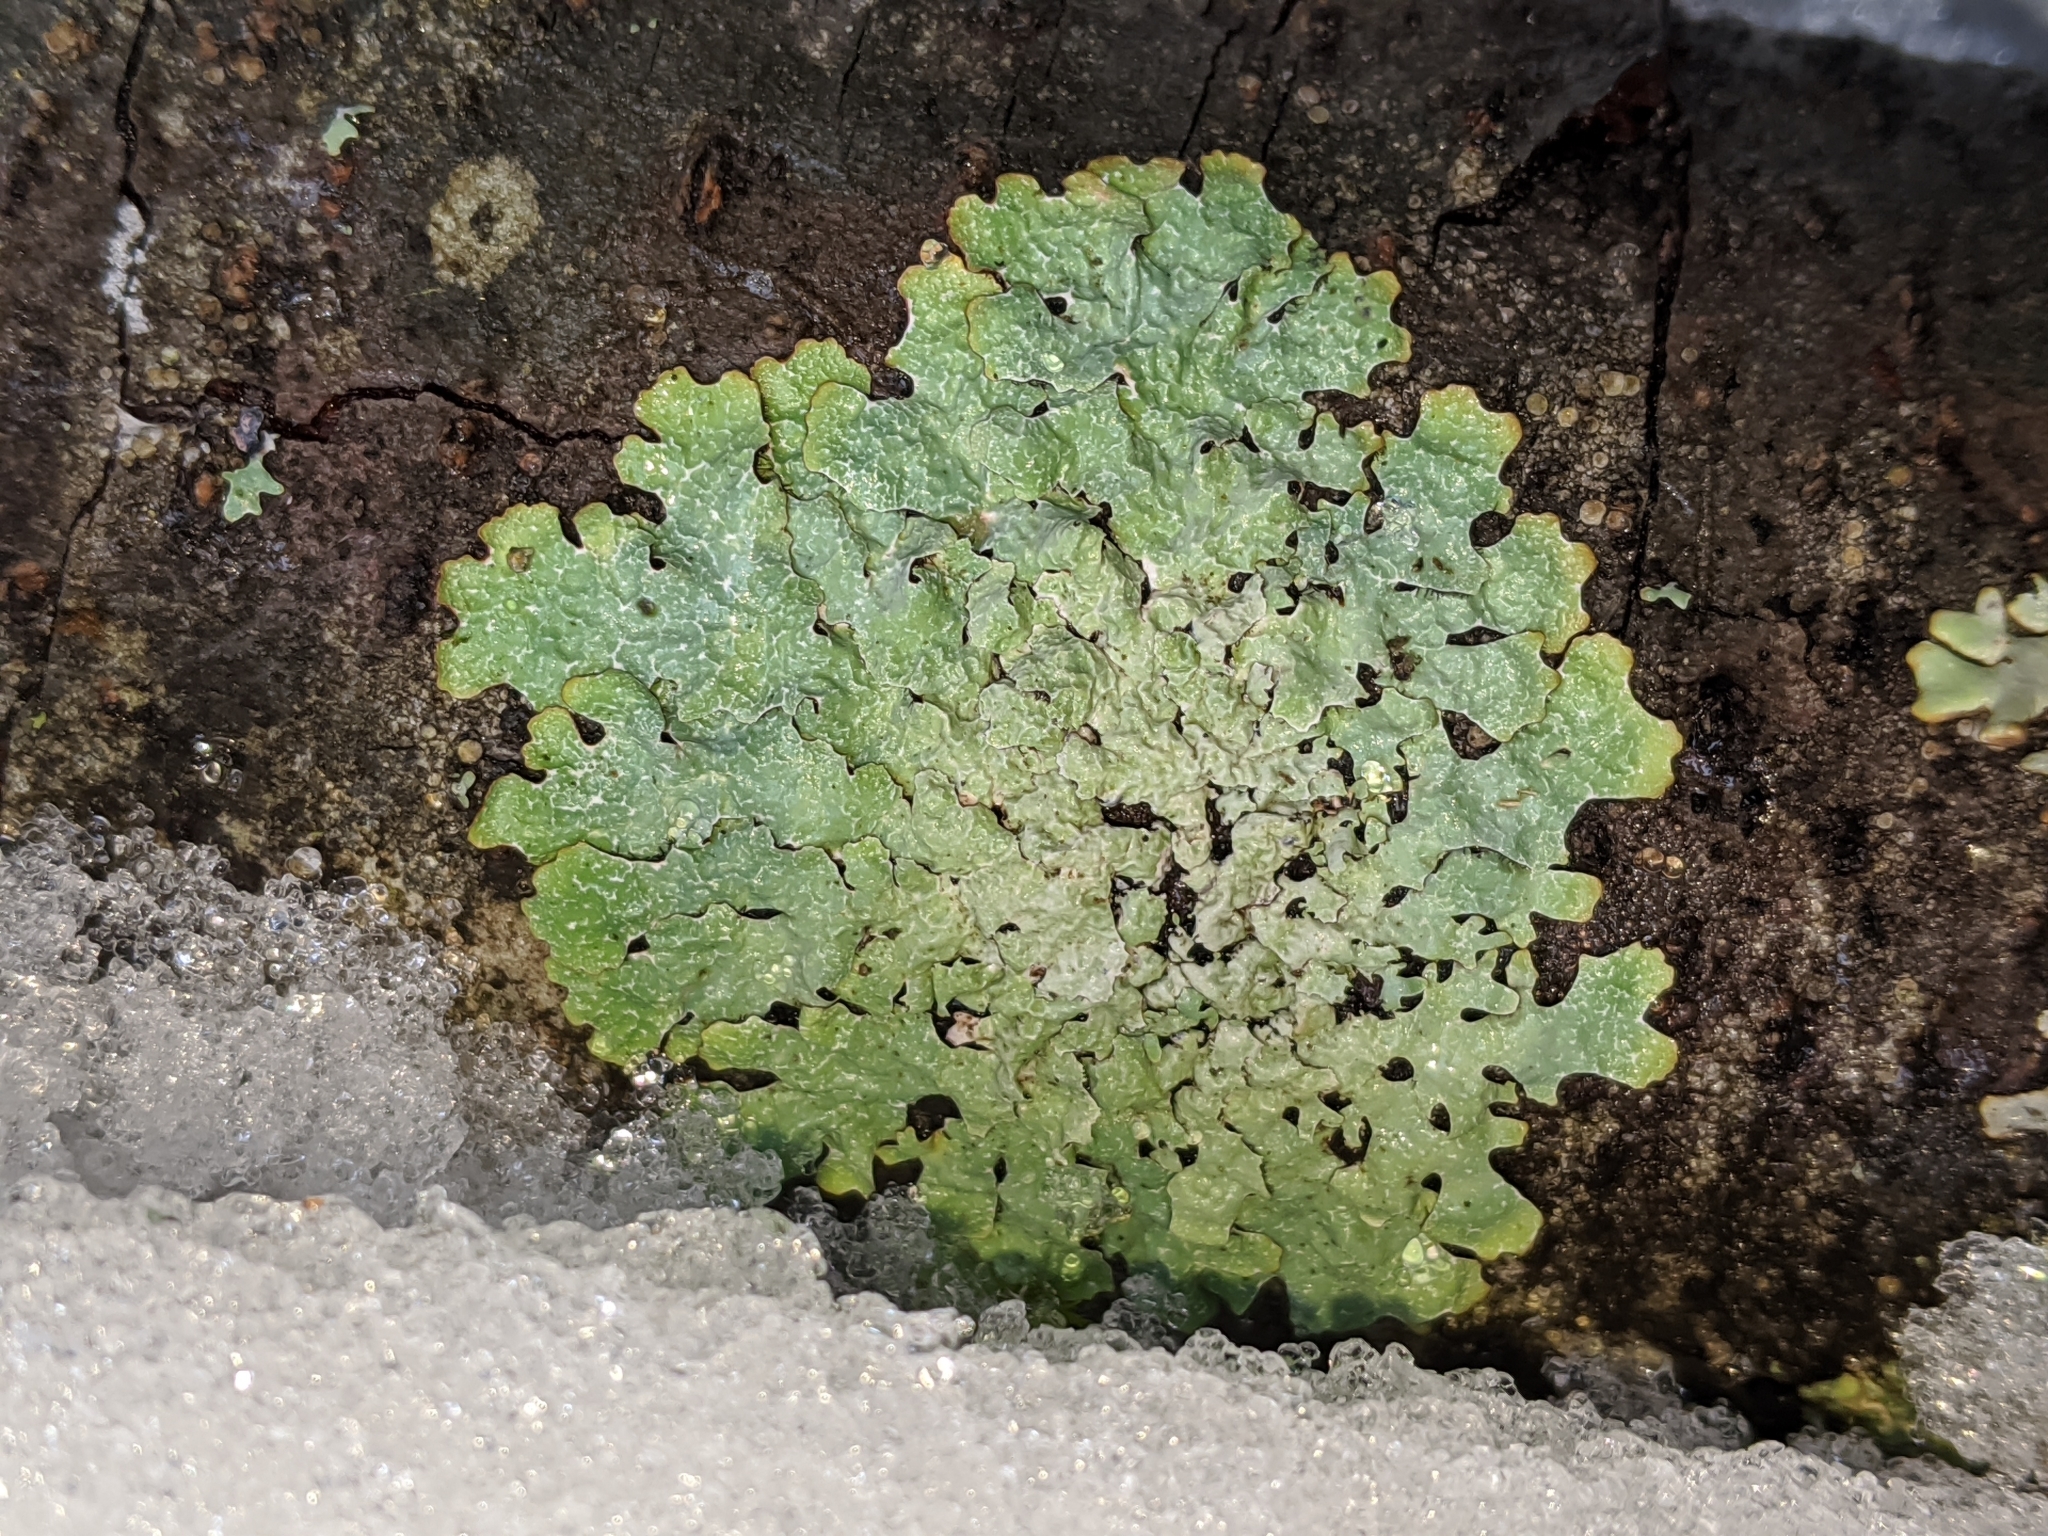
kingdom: Fungi
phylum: Ascomycota
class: Lecanoromycetes
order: Lecanorales
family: Parmeliaceae
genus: Parmelia
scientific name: Parmelia sulcata
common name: Netted shield lichen
